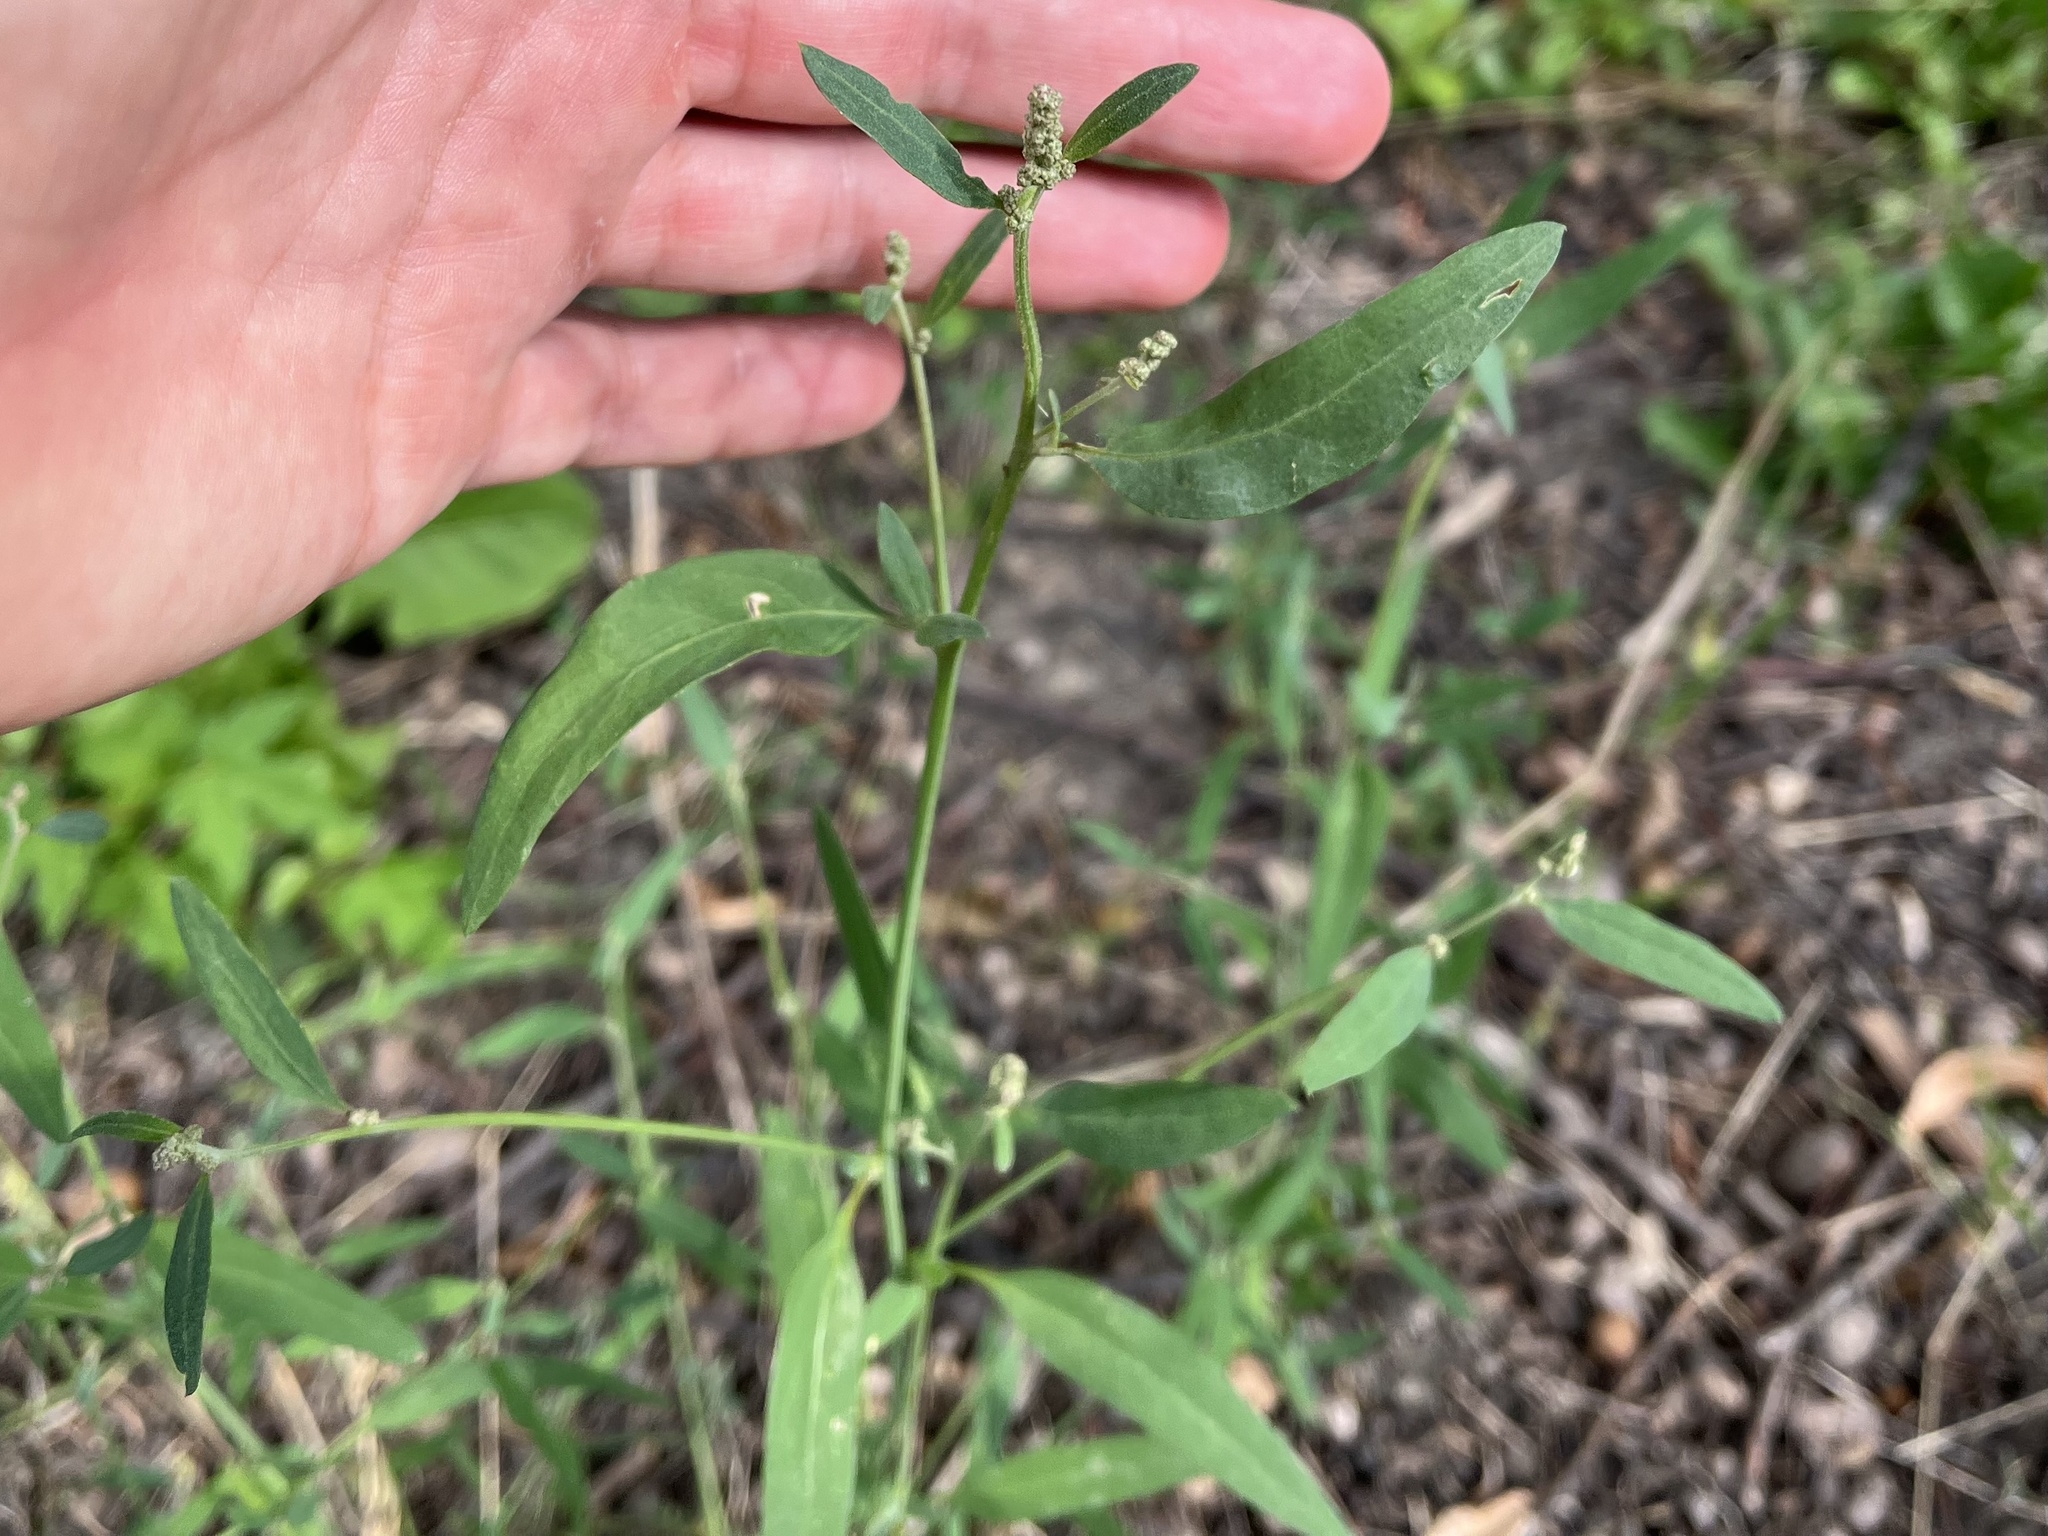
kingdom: Plantae
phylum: Tracheophyta
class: Magnoliopsida
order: Caryophyllales
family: Amaranthaceae
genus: Atriplex
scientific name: Atriplex patula
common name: Common orache
